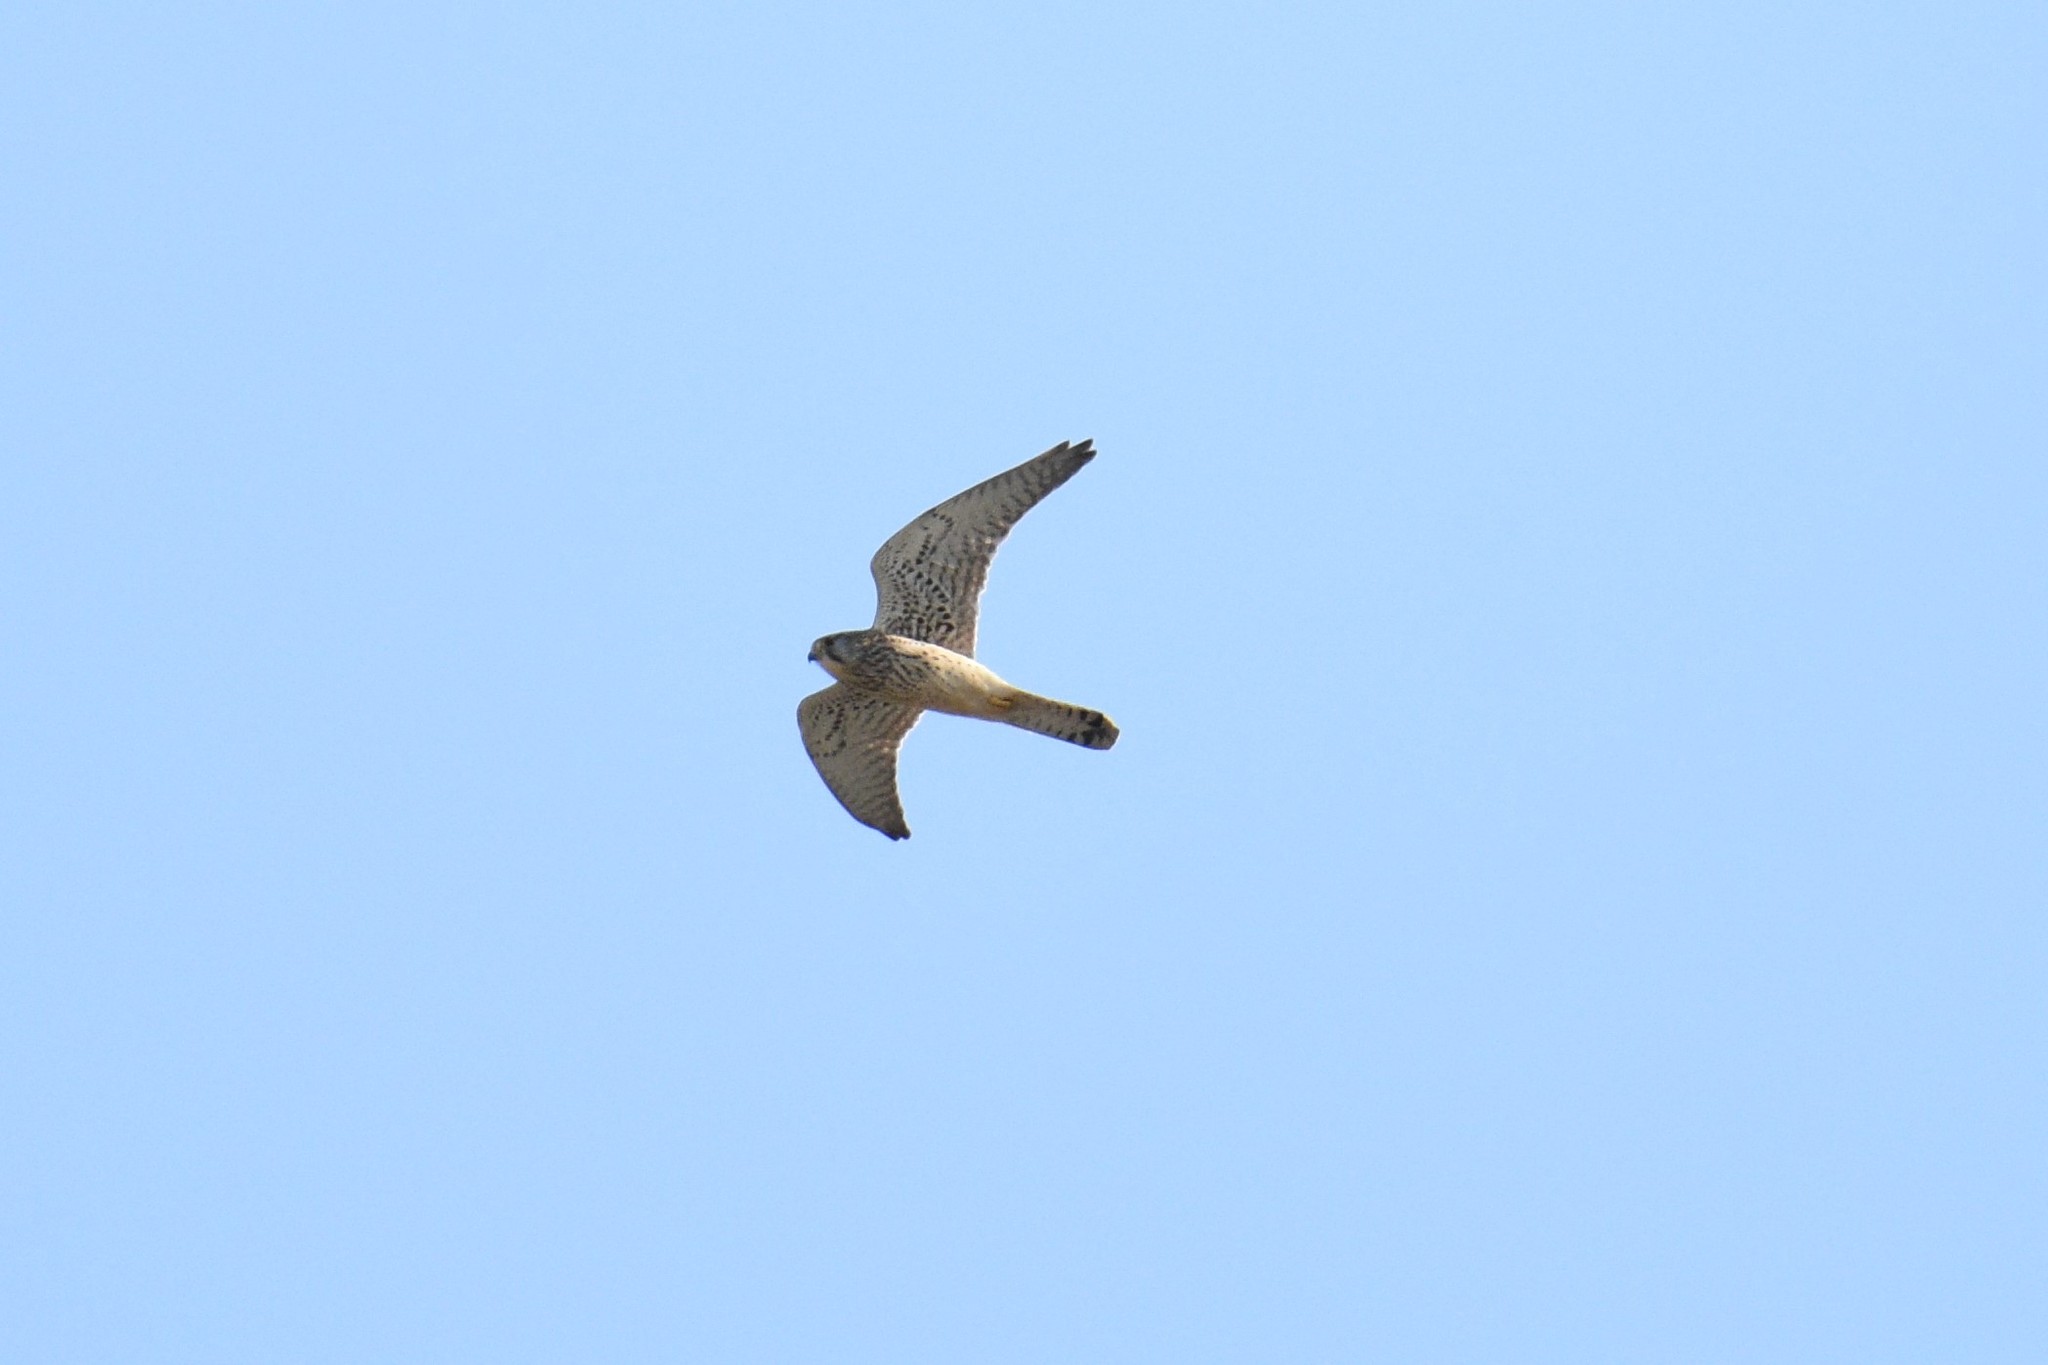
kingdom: Animalia
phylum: Chordata
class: Aves
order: Falconiformes
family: Falconidae
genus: Falco
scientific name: Falco tinnunculus
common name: Common kestrel
